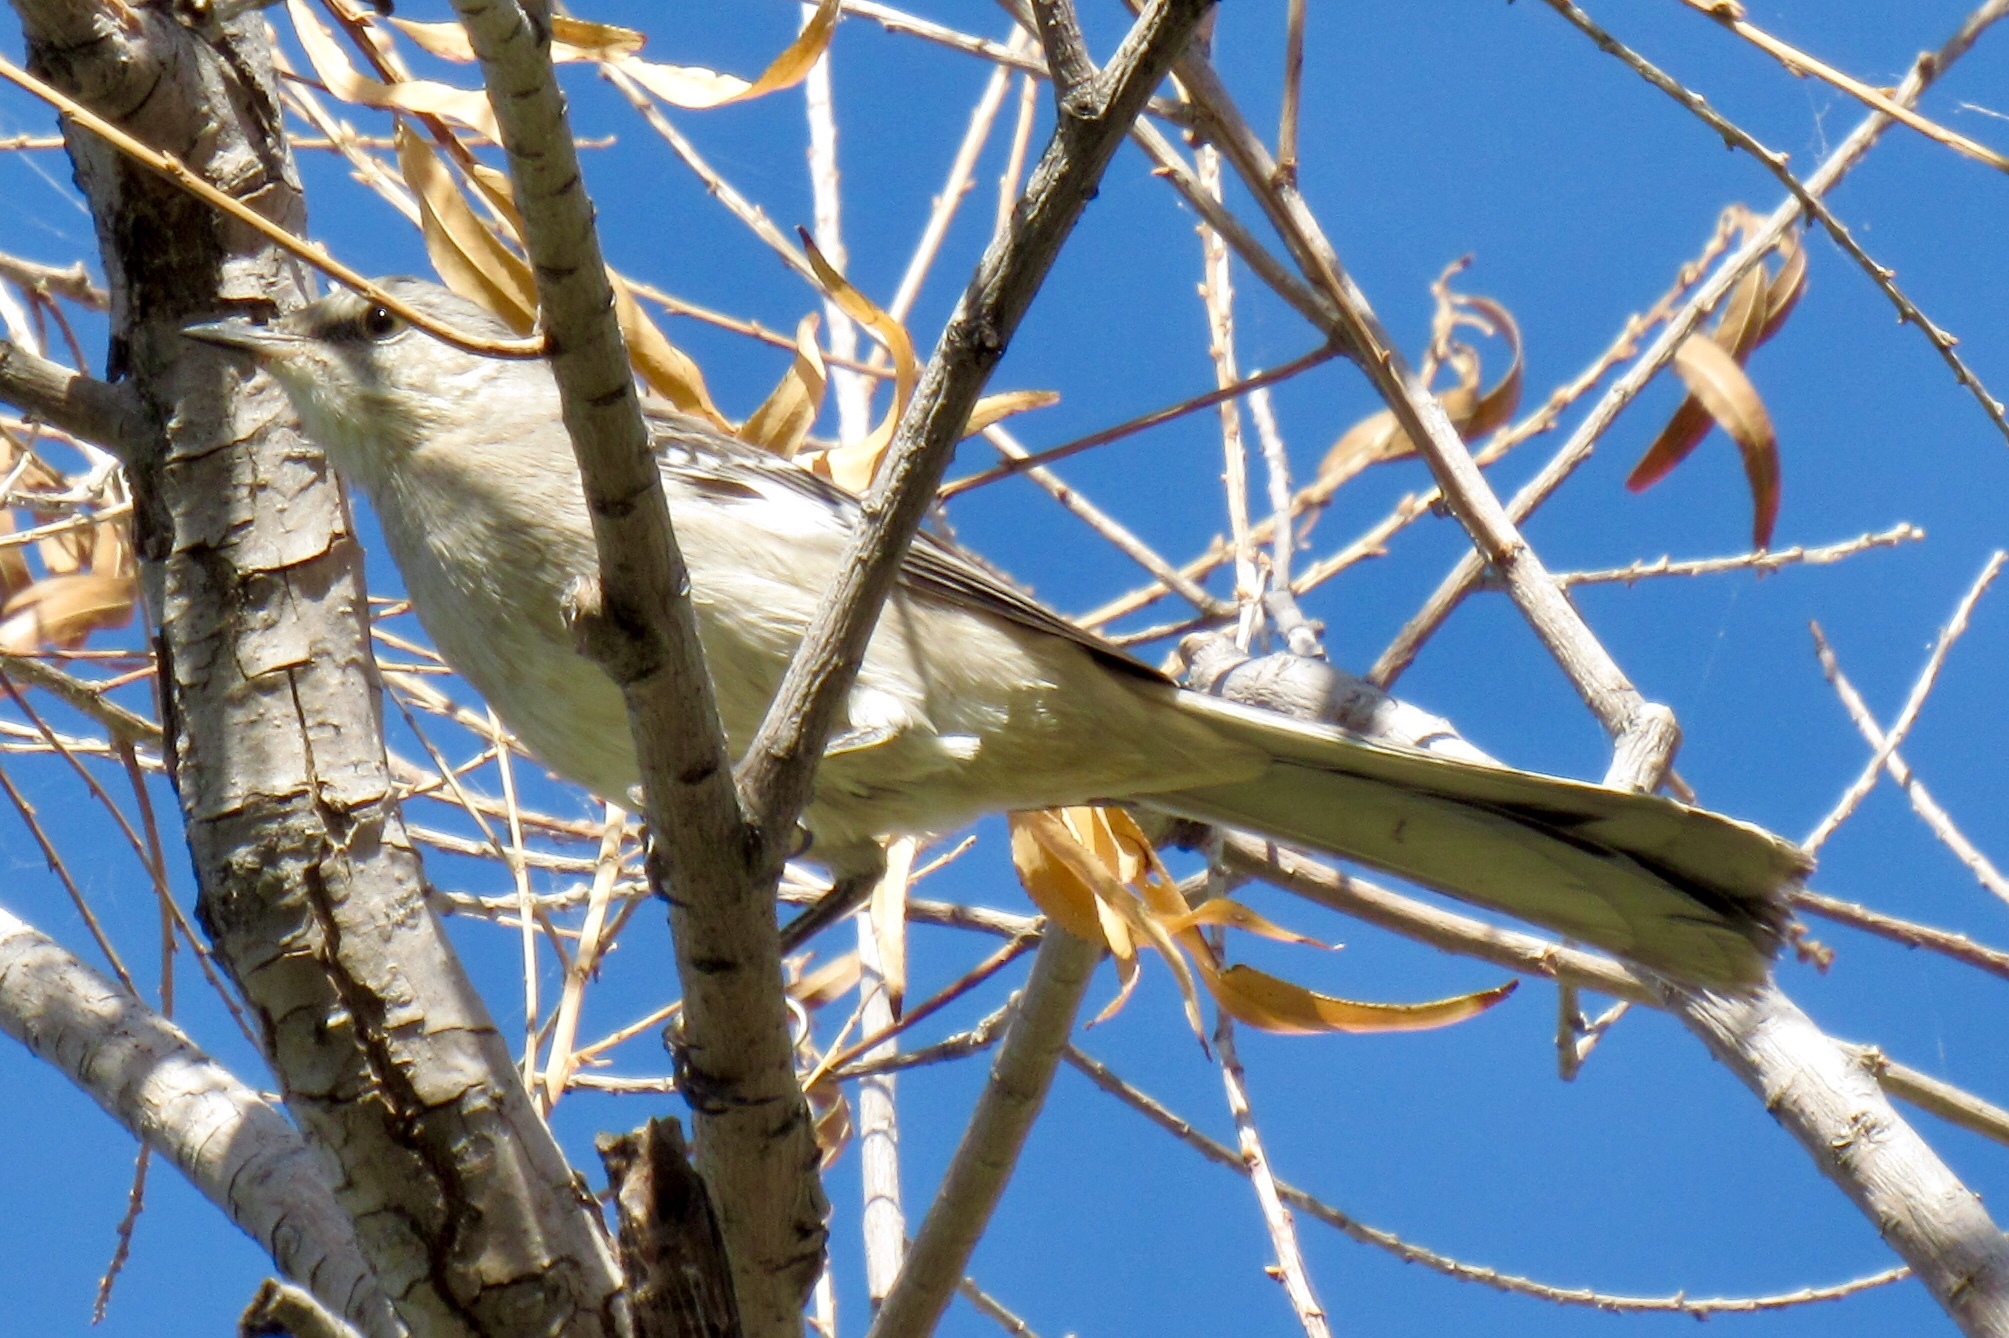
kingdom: Animalia
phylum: Chordata
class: Aves
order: Passeriformes
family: Mimidae
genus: Mimus
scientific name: Mimus polyglottos
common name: Northern mockingbird
